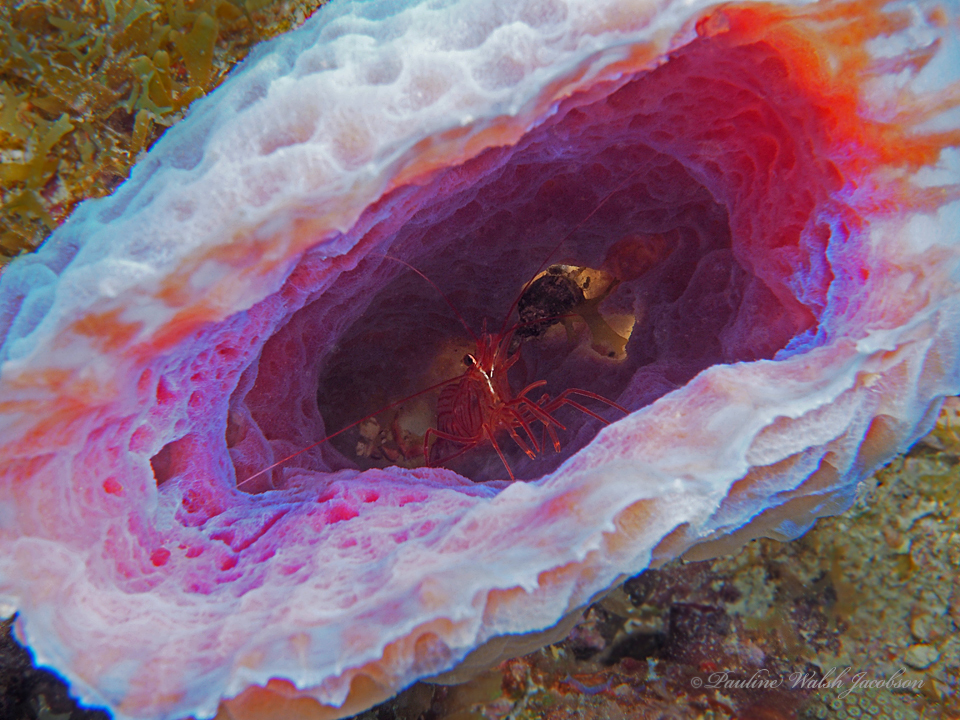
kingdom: Animalia
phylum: Arthropoda
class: Malacostraca
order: Decapoda
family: Lysmatidae
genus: Lysmata
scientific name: Lysmata pederseni
